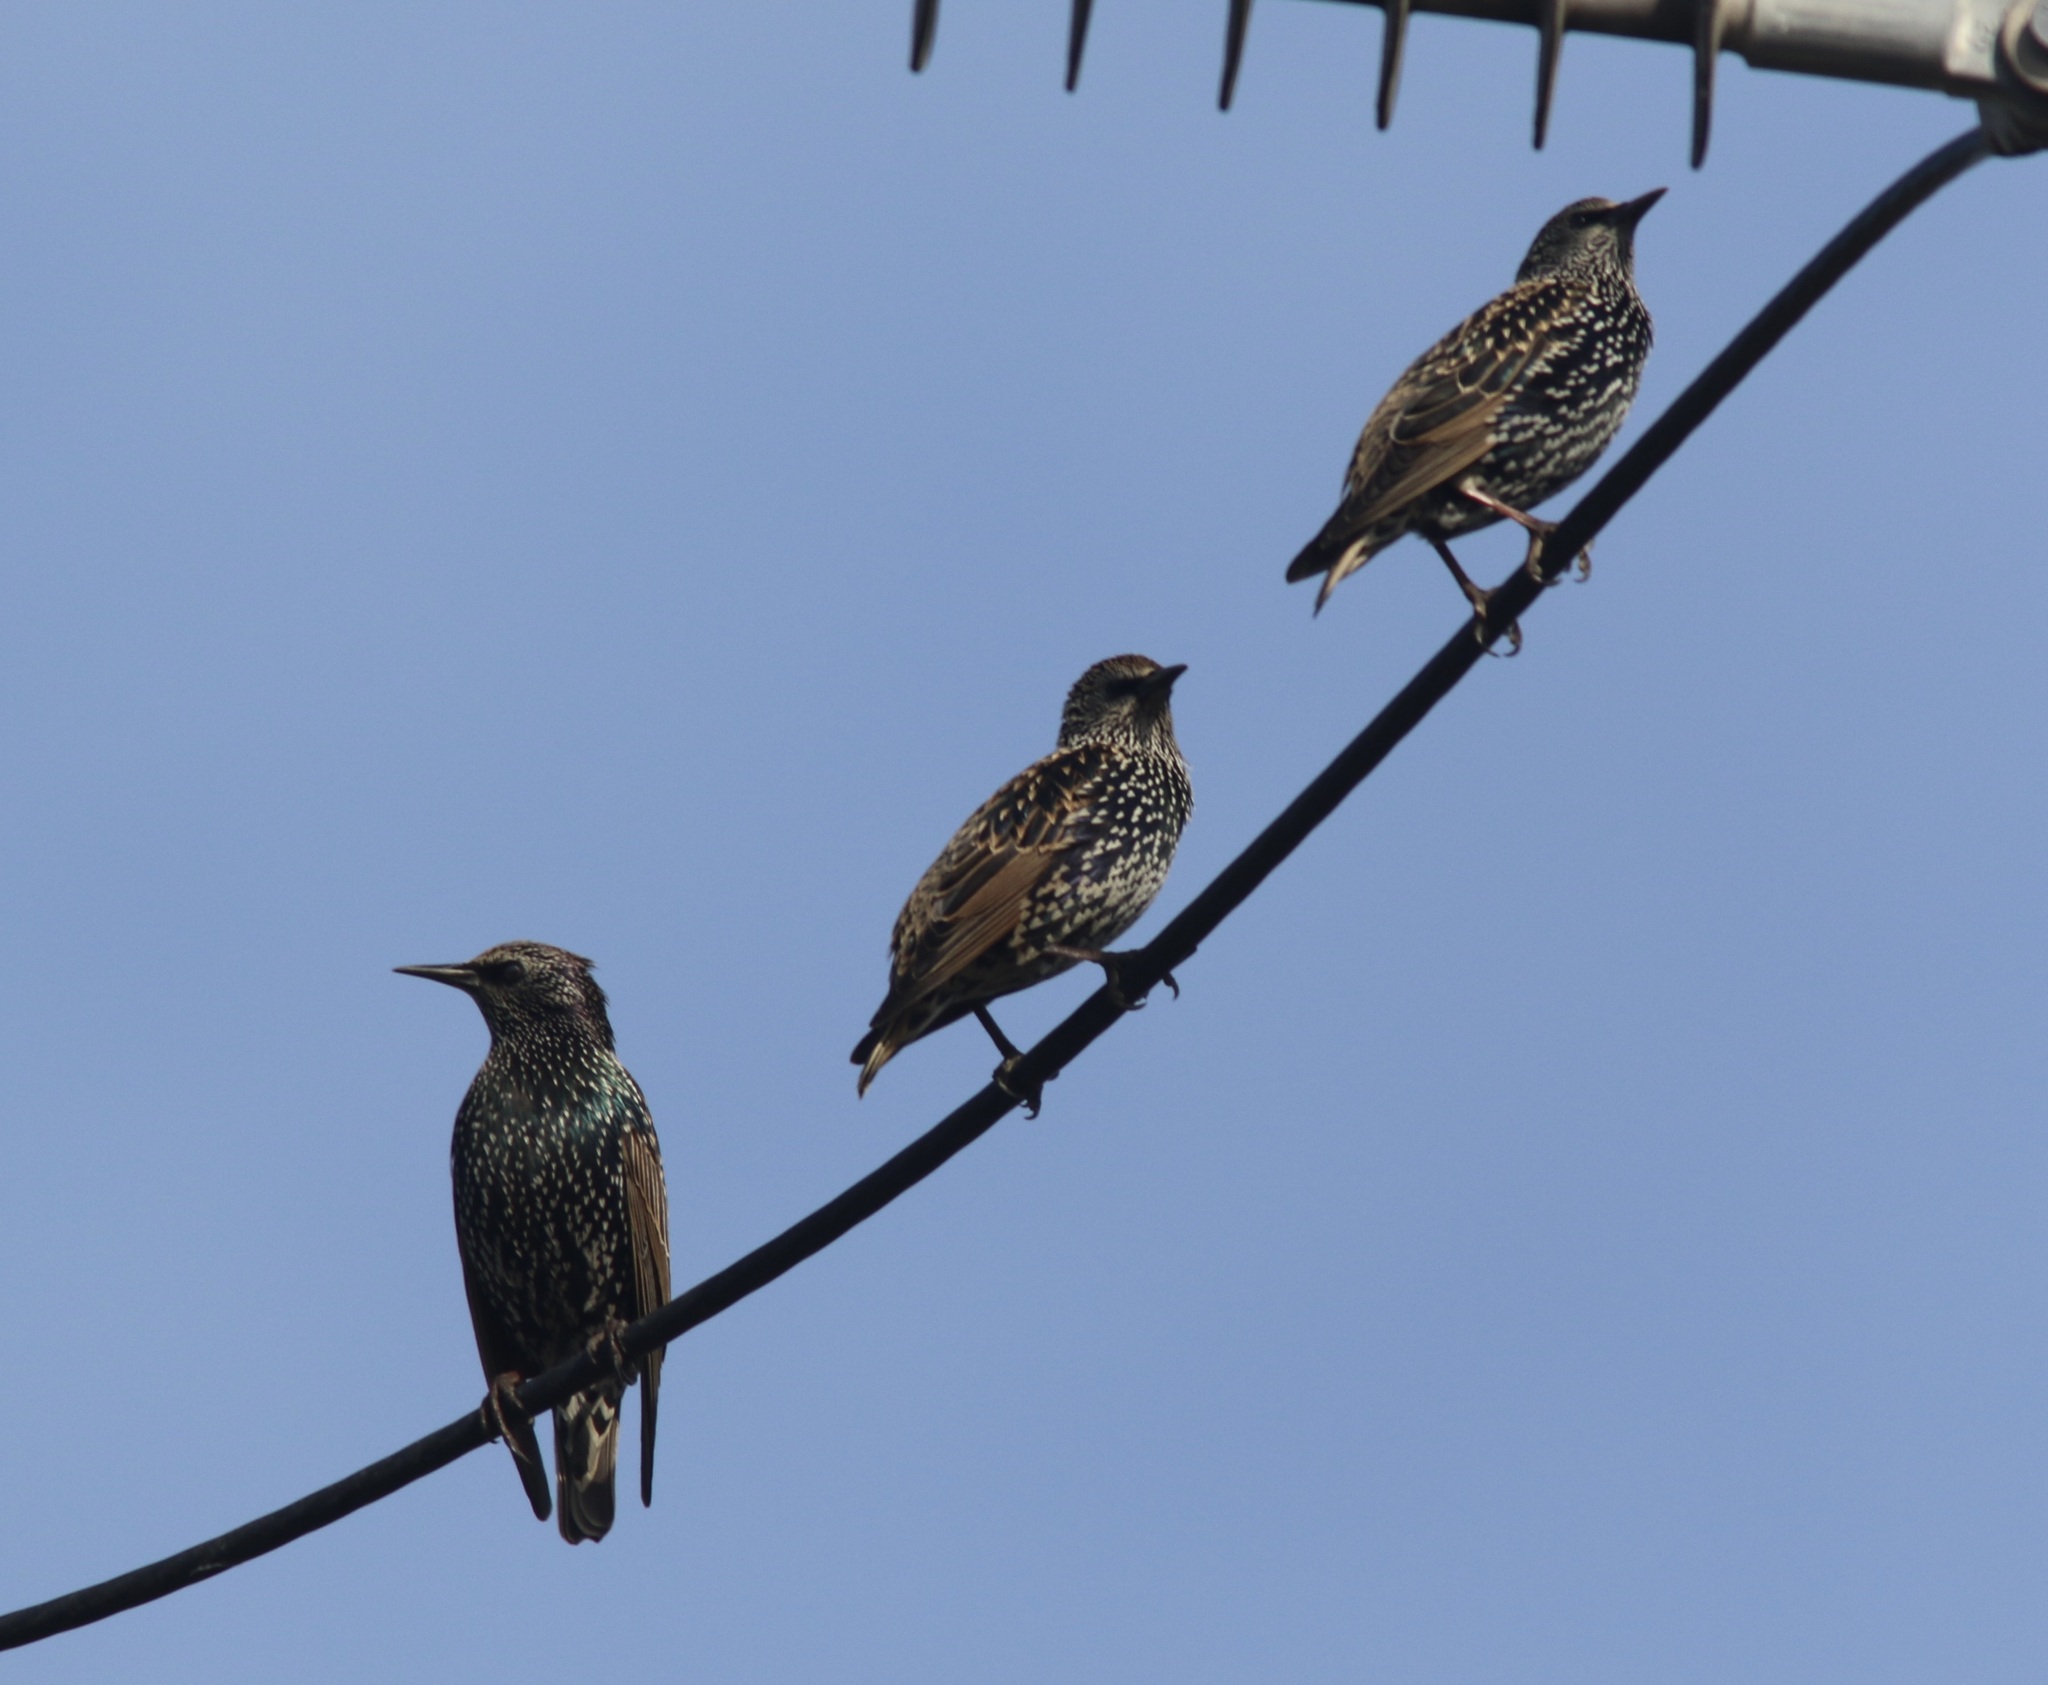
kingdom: Animalia
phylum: Chordata
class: Aves
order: Passeriformes
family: Sturnidae
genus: Sturnus
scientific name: Sturnus vulgaris
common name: Common starling
